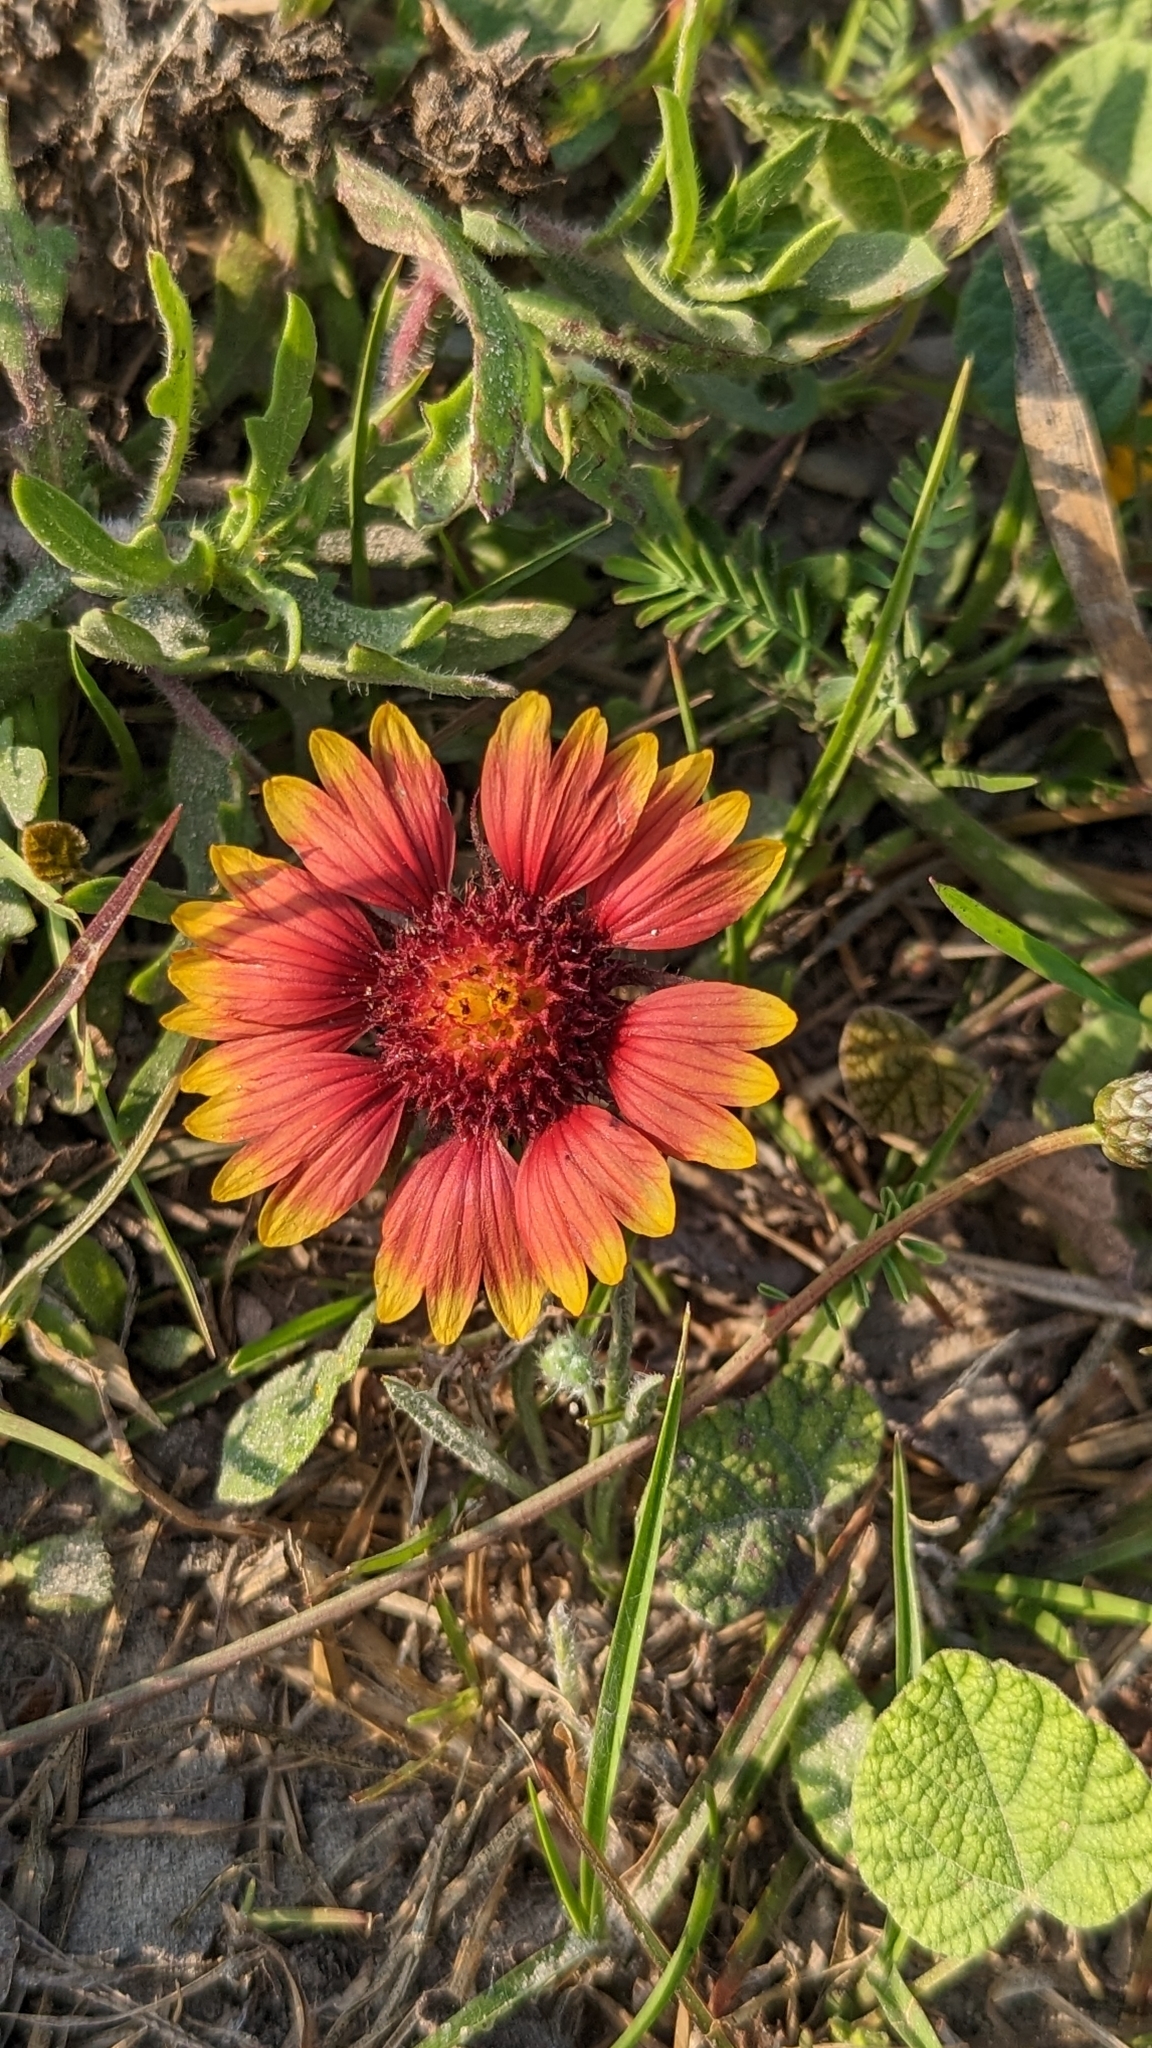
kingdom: Plantae
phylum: Tracheophyta
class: Magnoliopsida
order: Asterales
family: Asteraceae
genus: Gaillardia
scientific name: Gaillardia pulchella
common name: Firewheel
